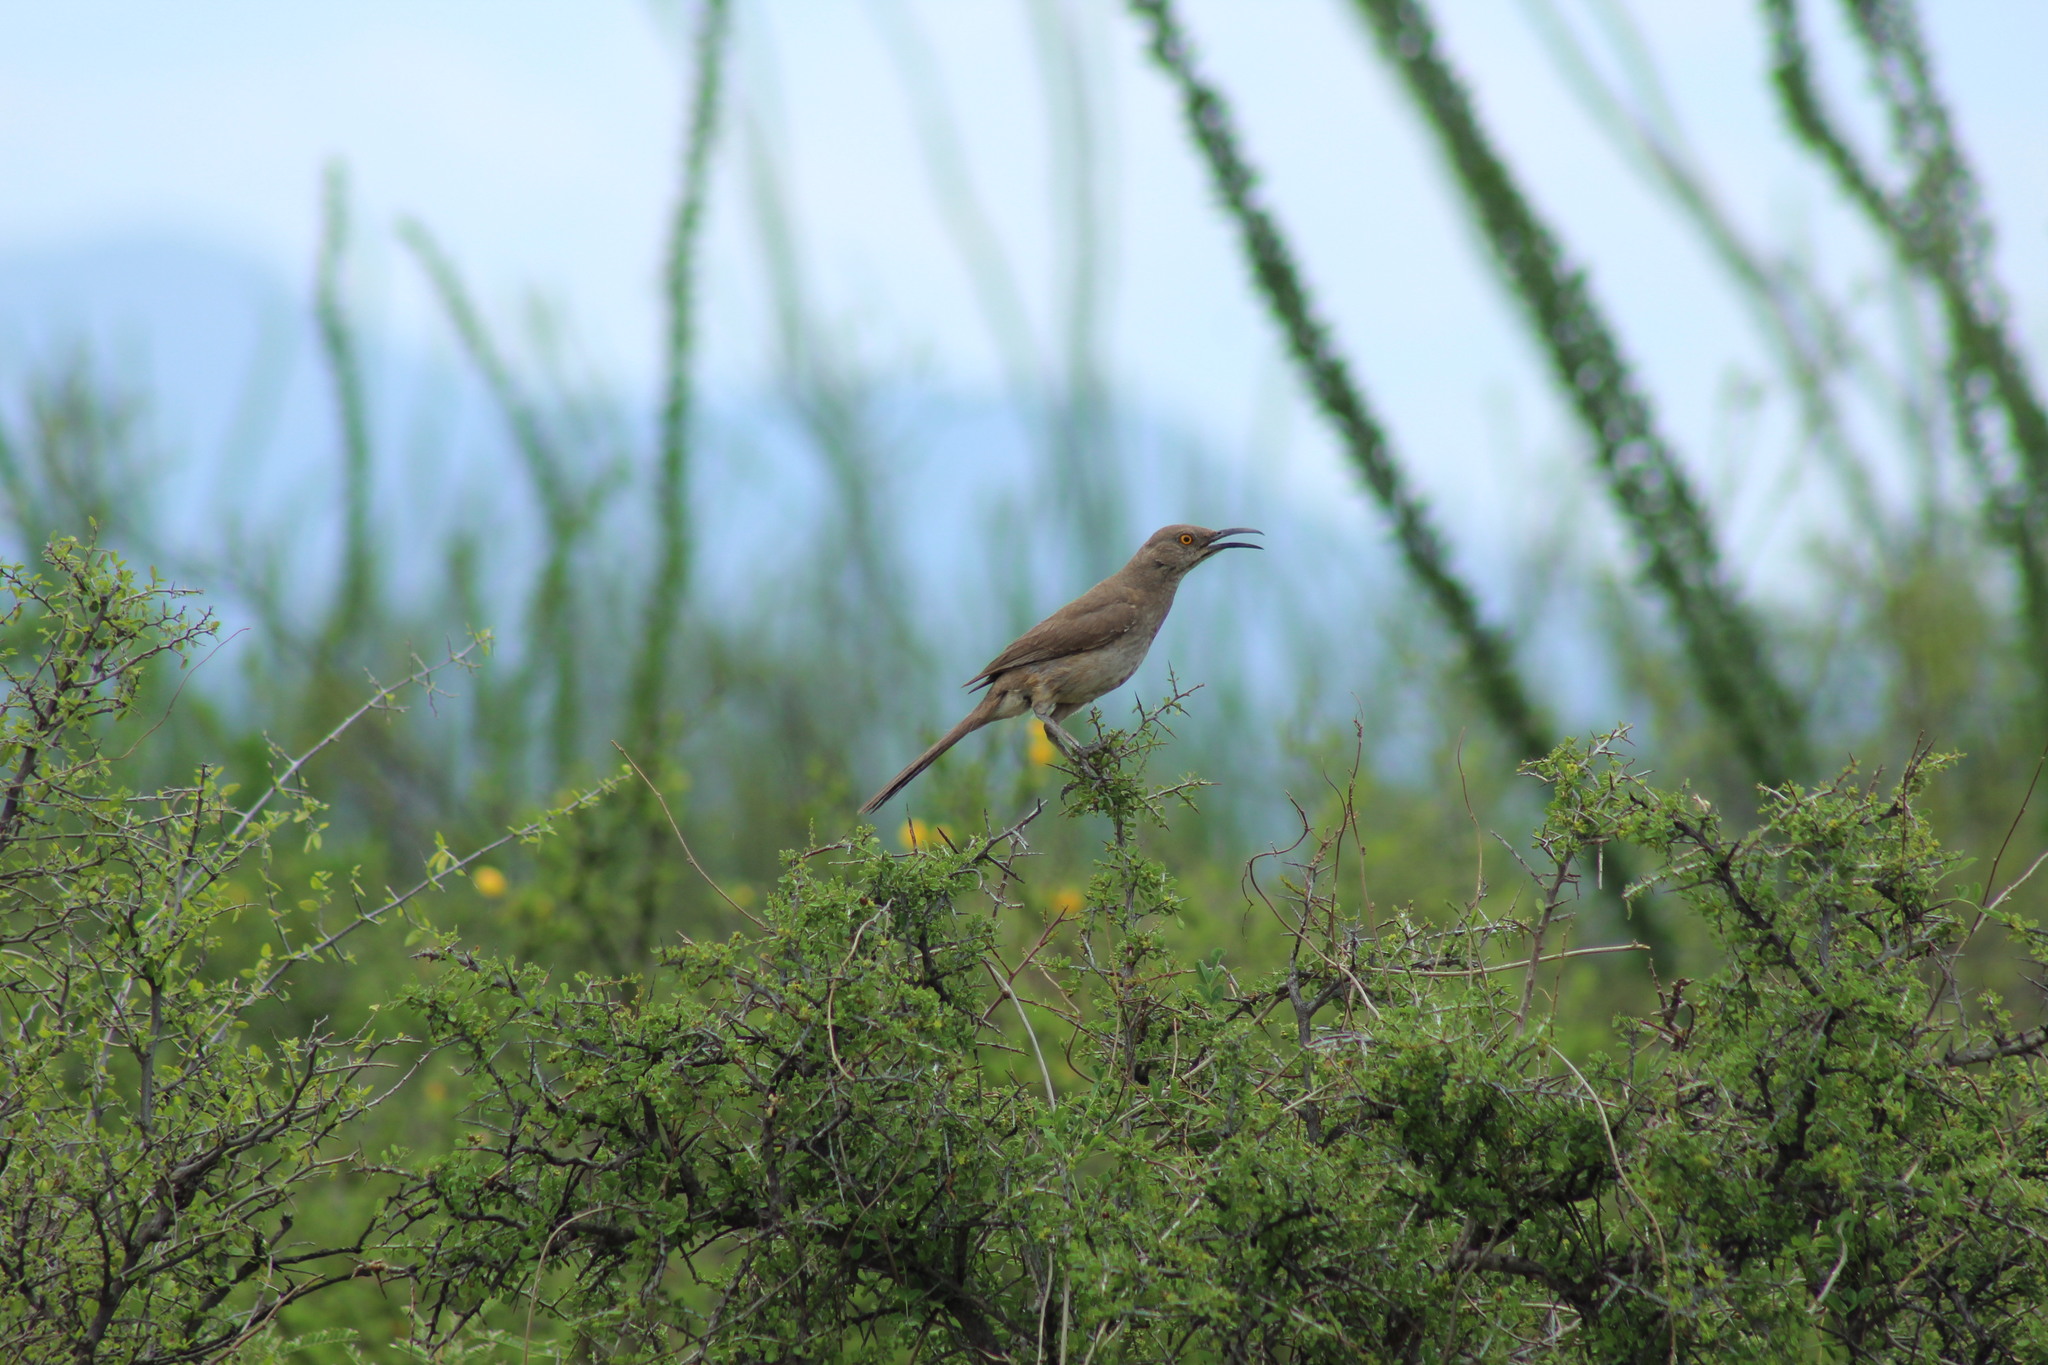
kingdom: Animalia
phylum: Chordata
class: Aves
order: Passeriformes
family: Mimidae
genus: Toxostoma
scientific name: Toxostoma curvirostre
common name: Curve-billed thrasher
